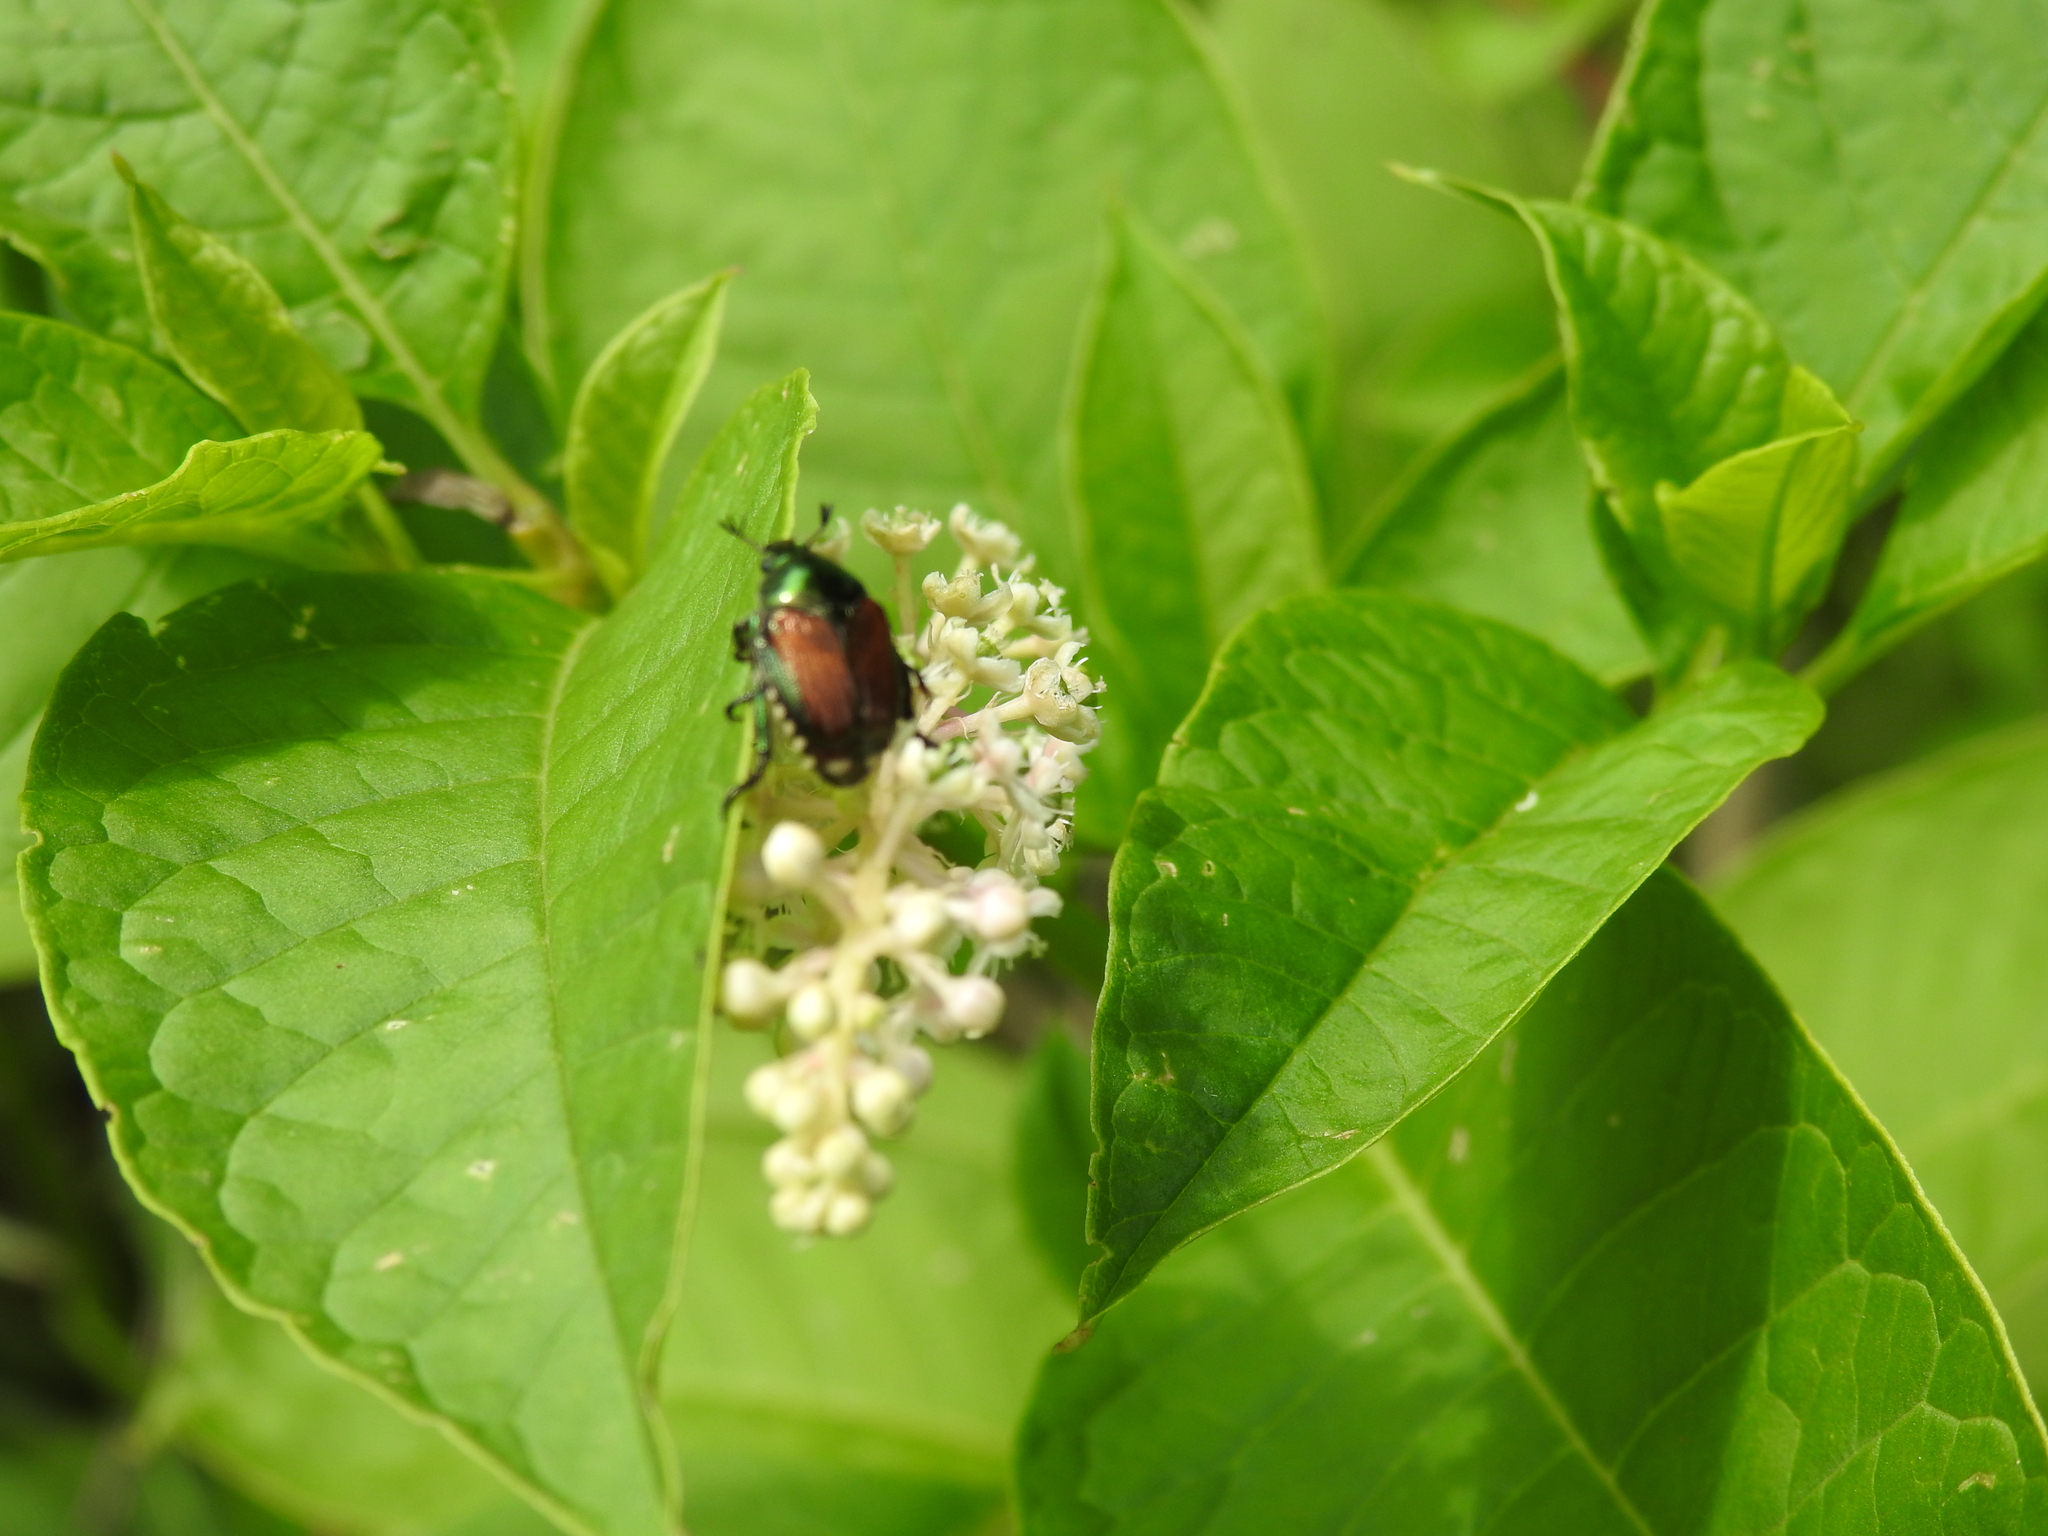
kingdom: Animalia
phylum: Arthropoda
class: Insecta
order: Coleoptera
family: Scarabaeidae
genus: Popillia
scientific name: Popillia japonica
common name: Japanese beetle
